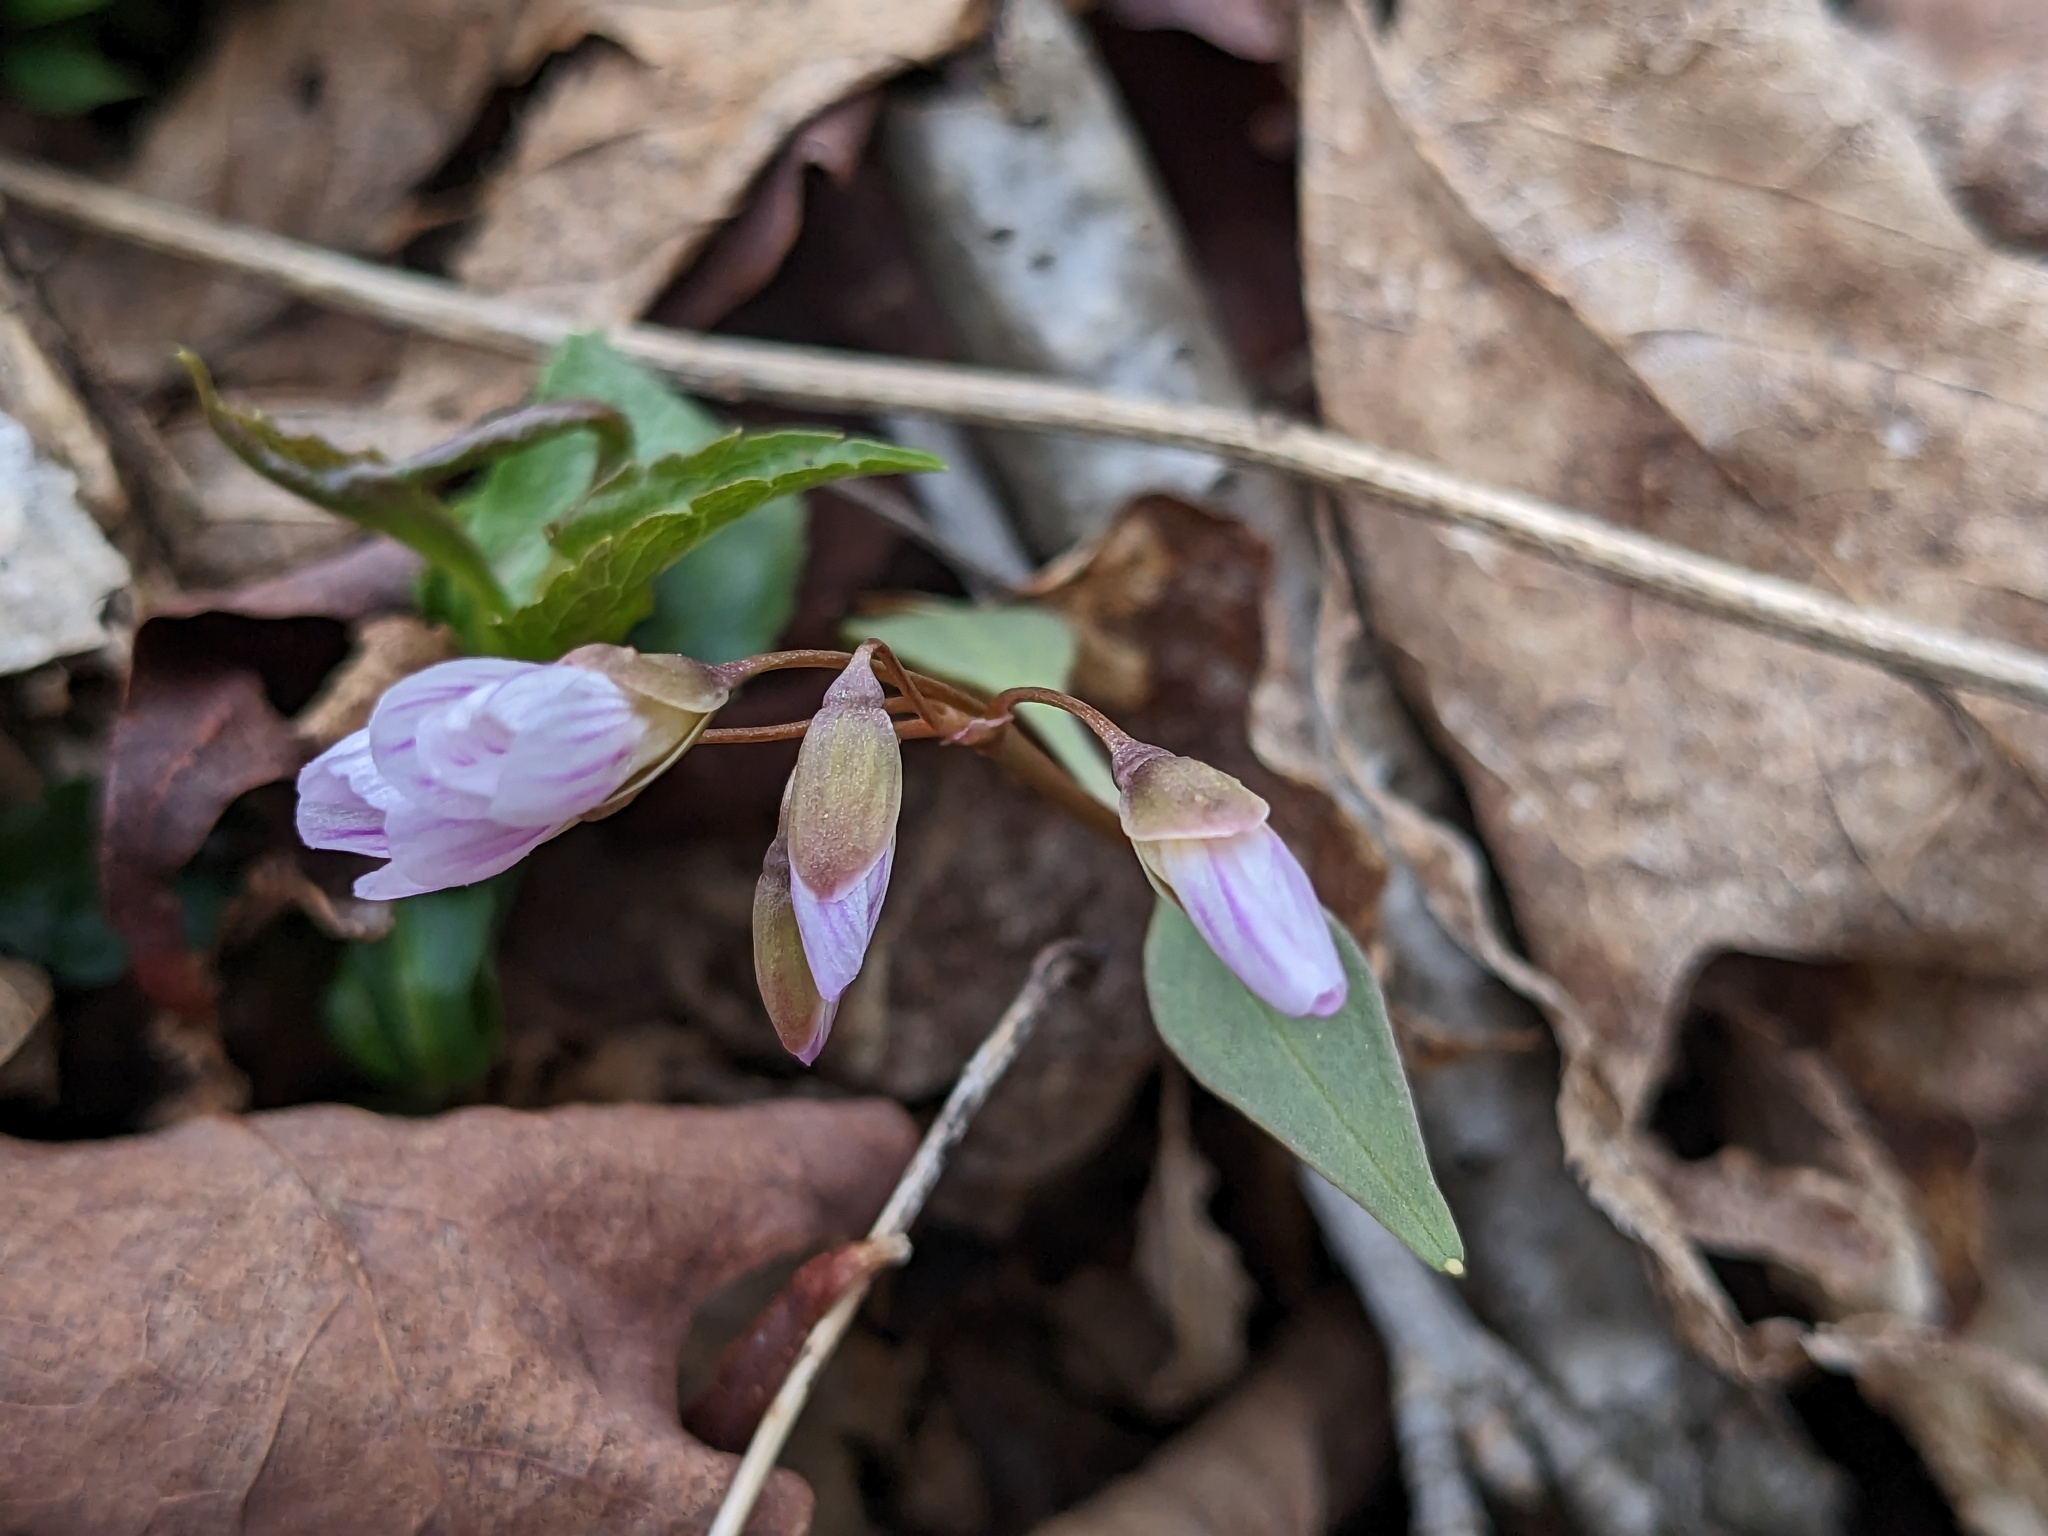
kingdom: Plantae
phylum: Tracheophyta
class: Magnoliopsida
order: Caryophyllales
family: Montiaceae
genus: Claytonia
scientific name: Claytonia caroliniana
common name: Carolina spring beauty
